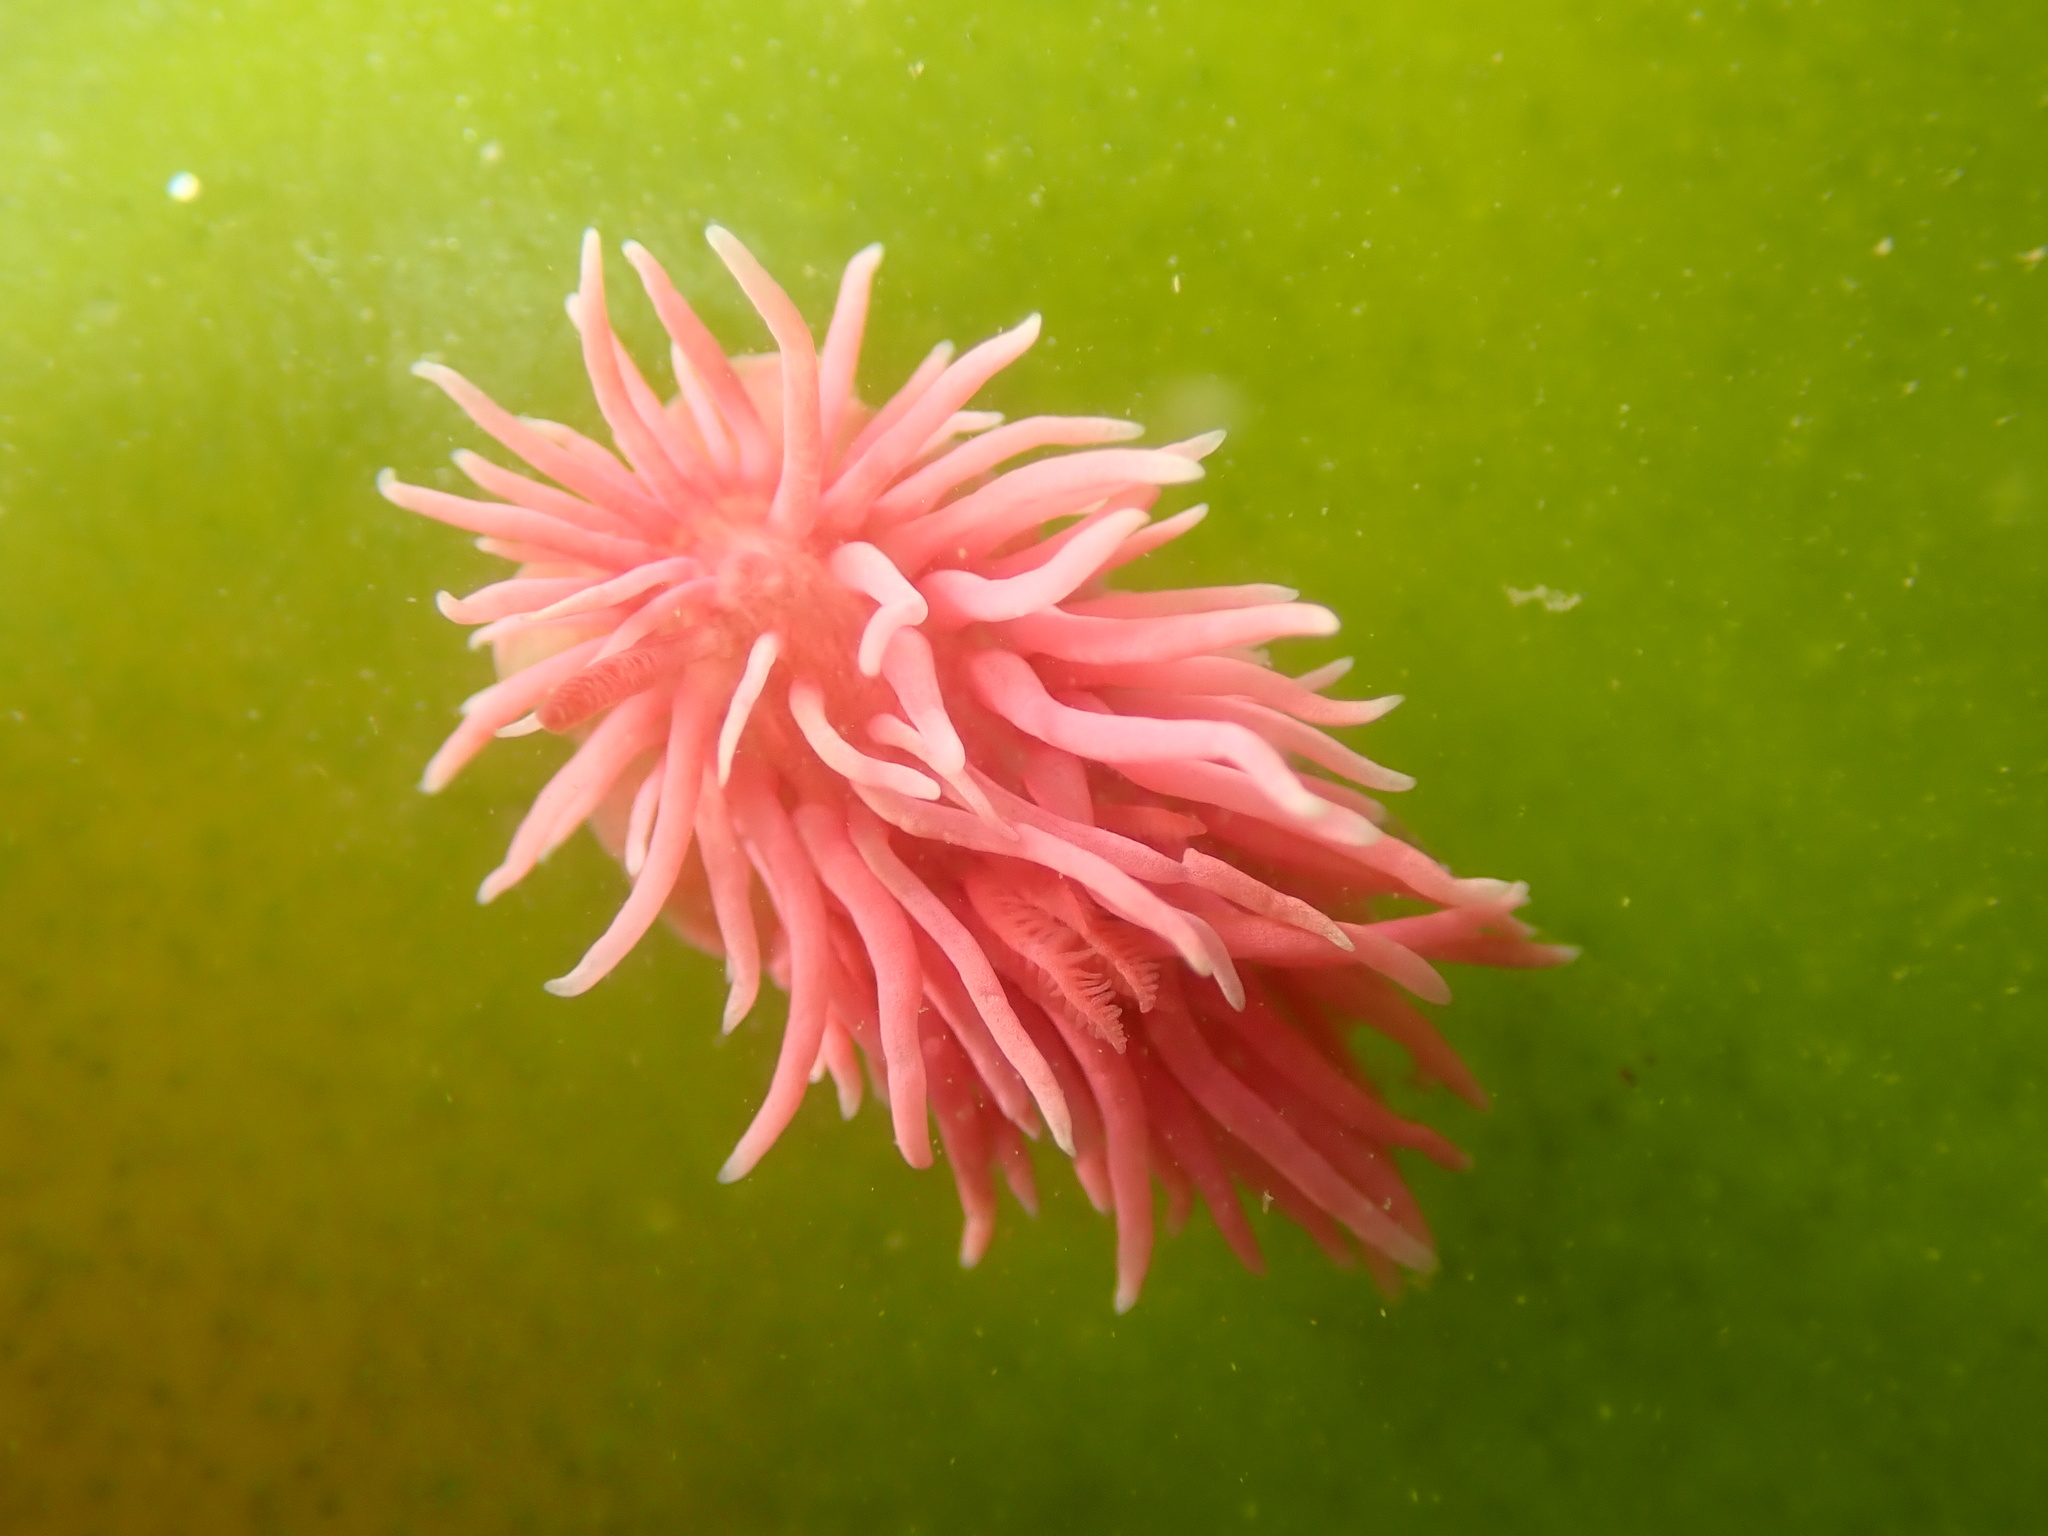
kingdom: Animalia
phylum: Mollusca
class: Gastropoda
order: Nudibranchia
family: Goniodorididae
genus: Okenia
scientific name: Okenia
